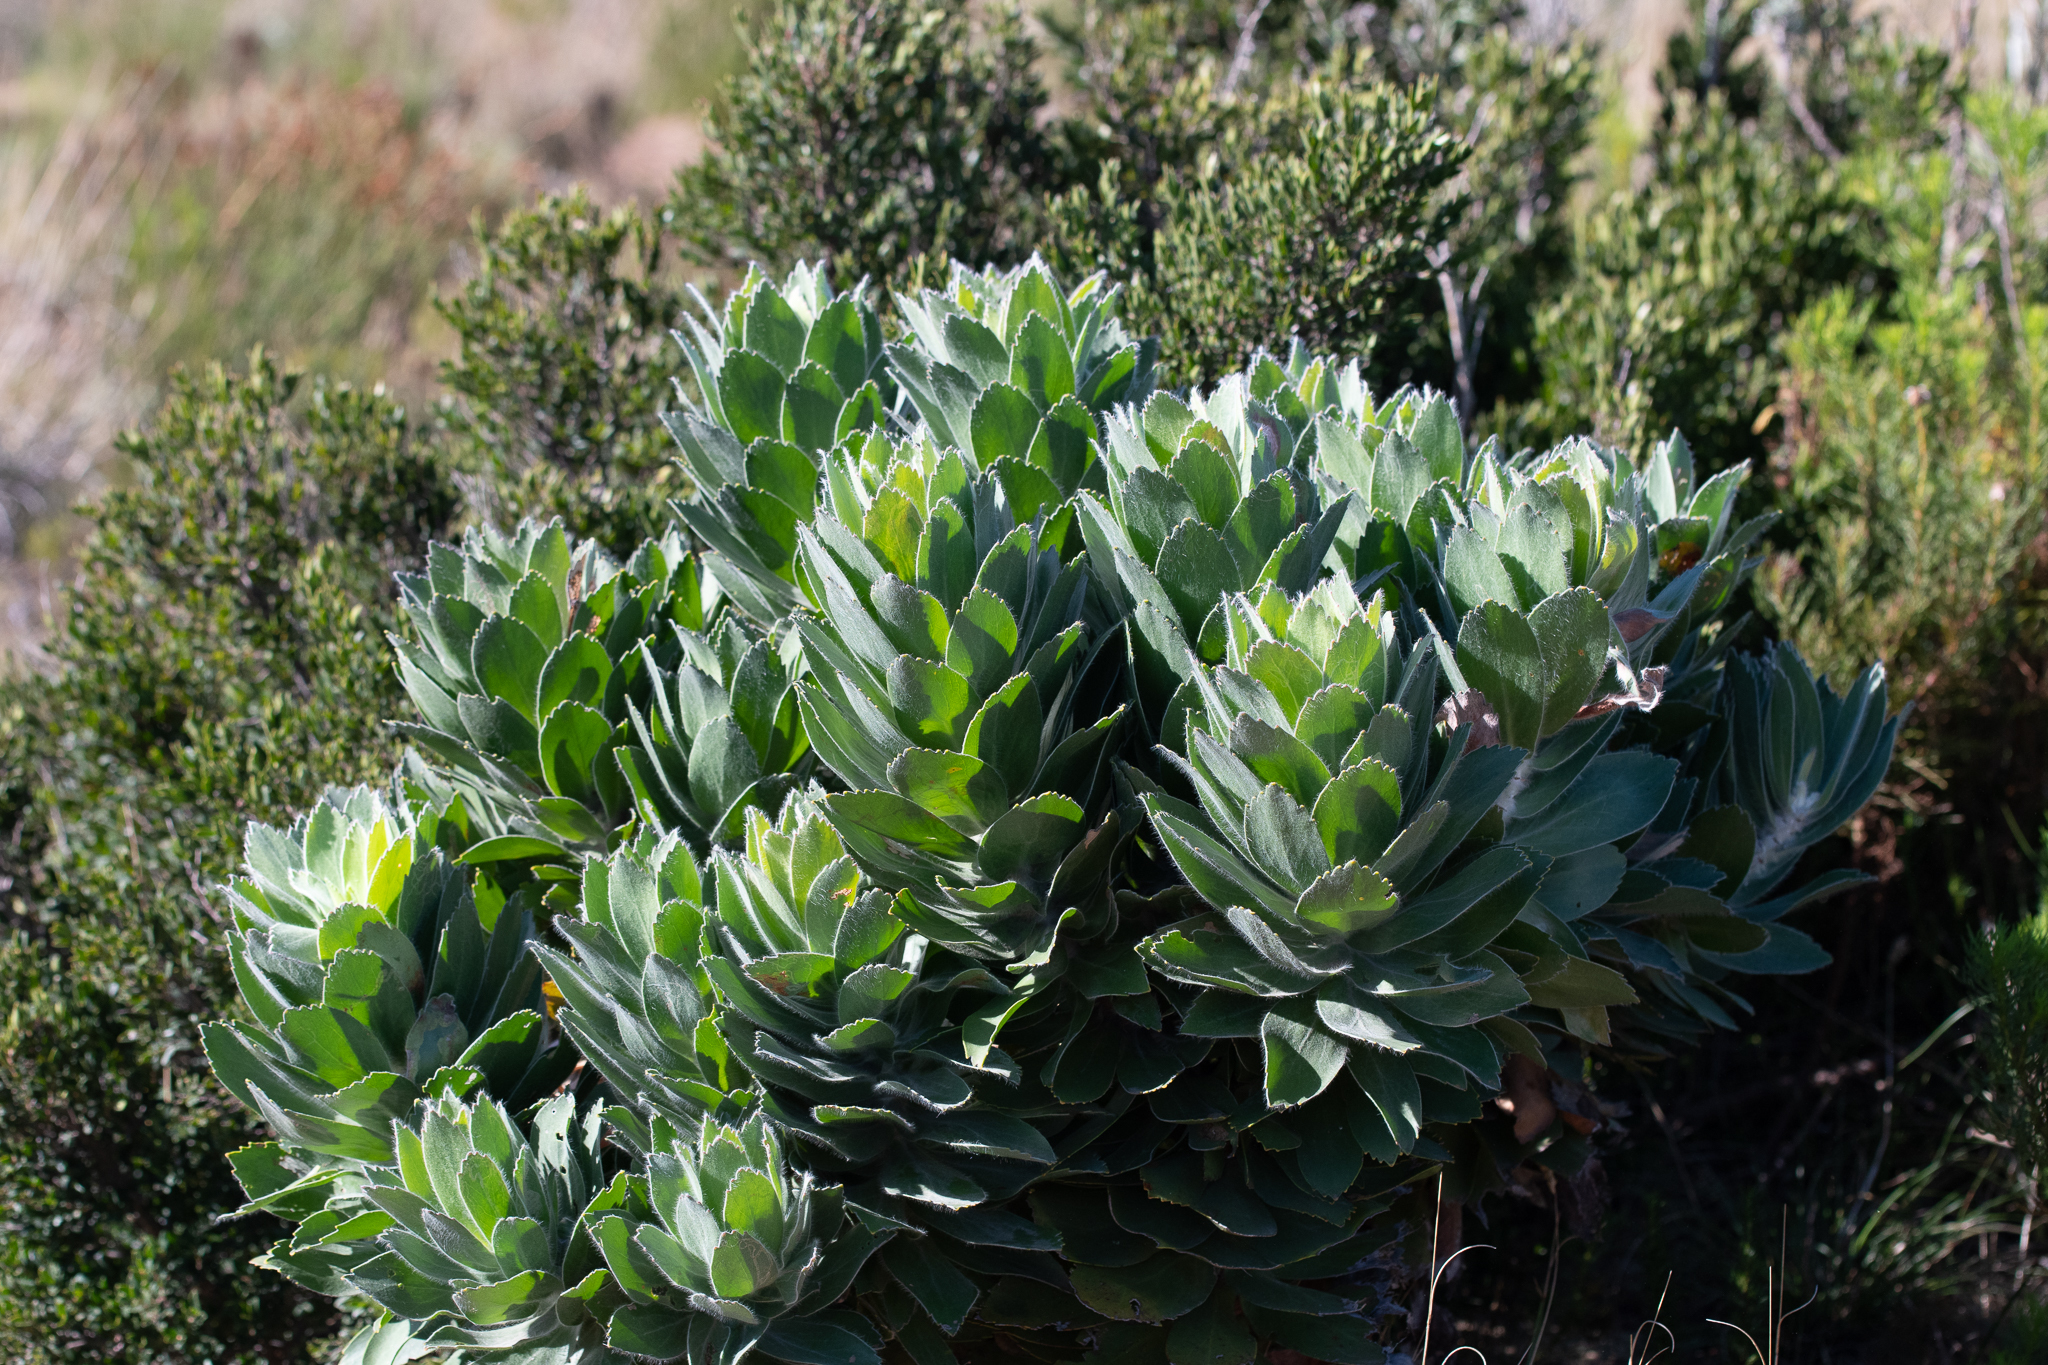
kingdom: Plantae
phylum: Tracheophyta
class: Magnoliopsida
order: Proteales
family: Proteaceae
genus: Leucospermum
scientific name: Leucospermum conocarpodendron
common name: Tree pincushion
